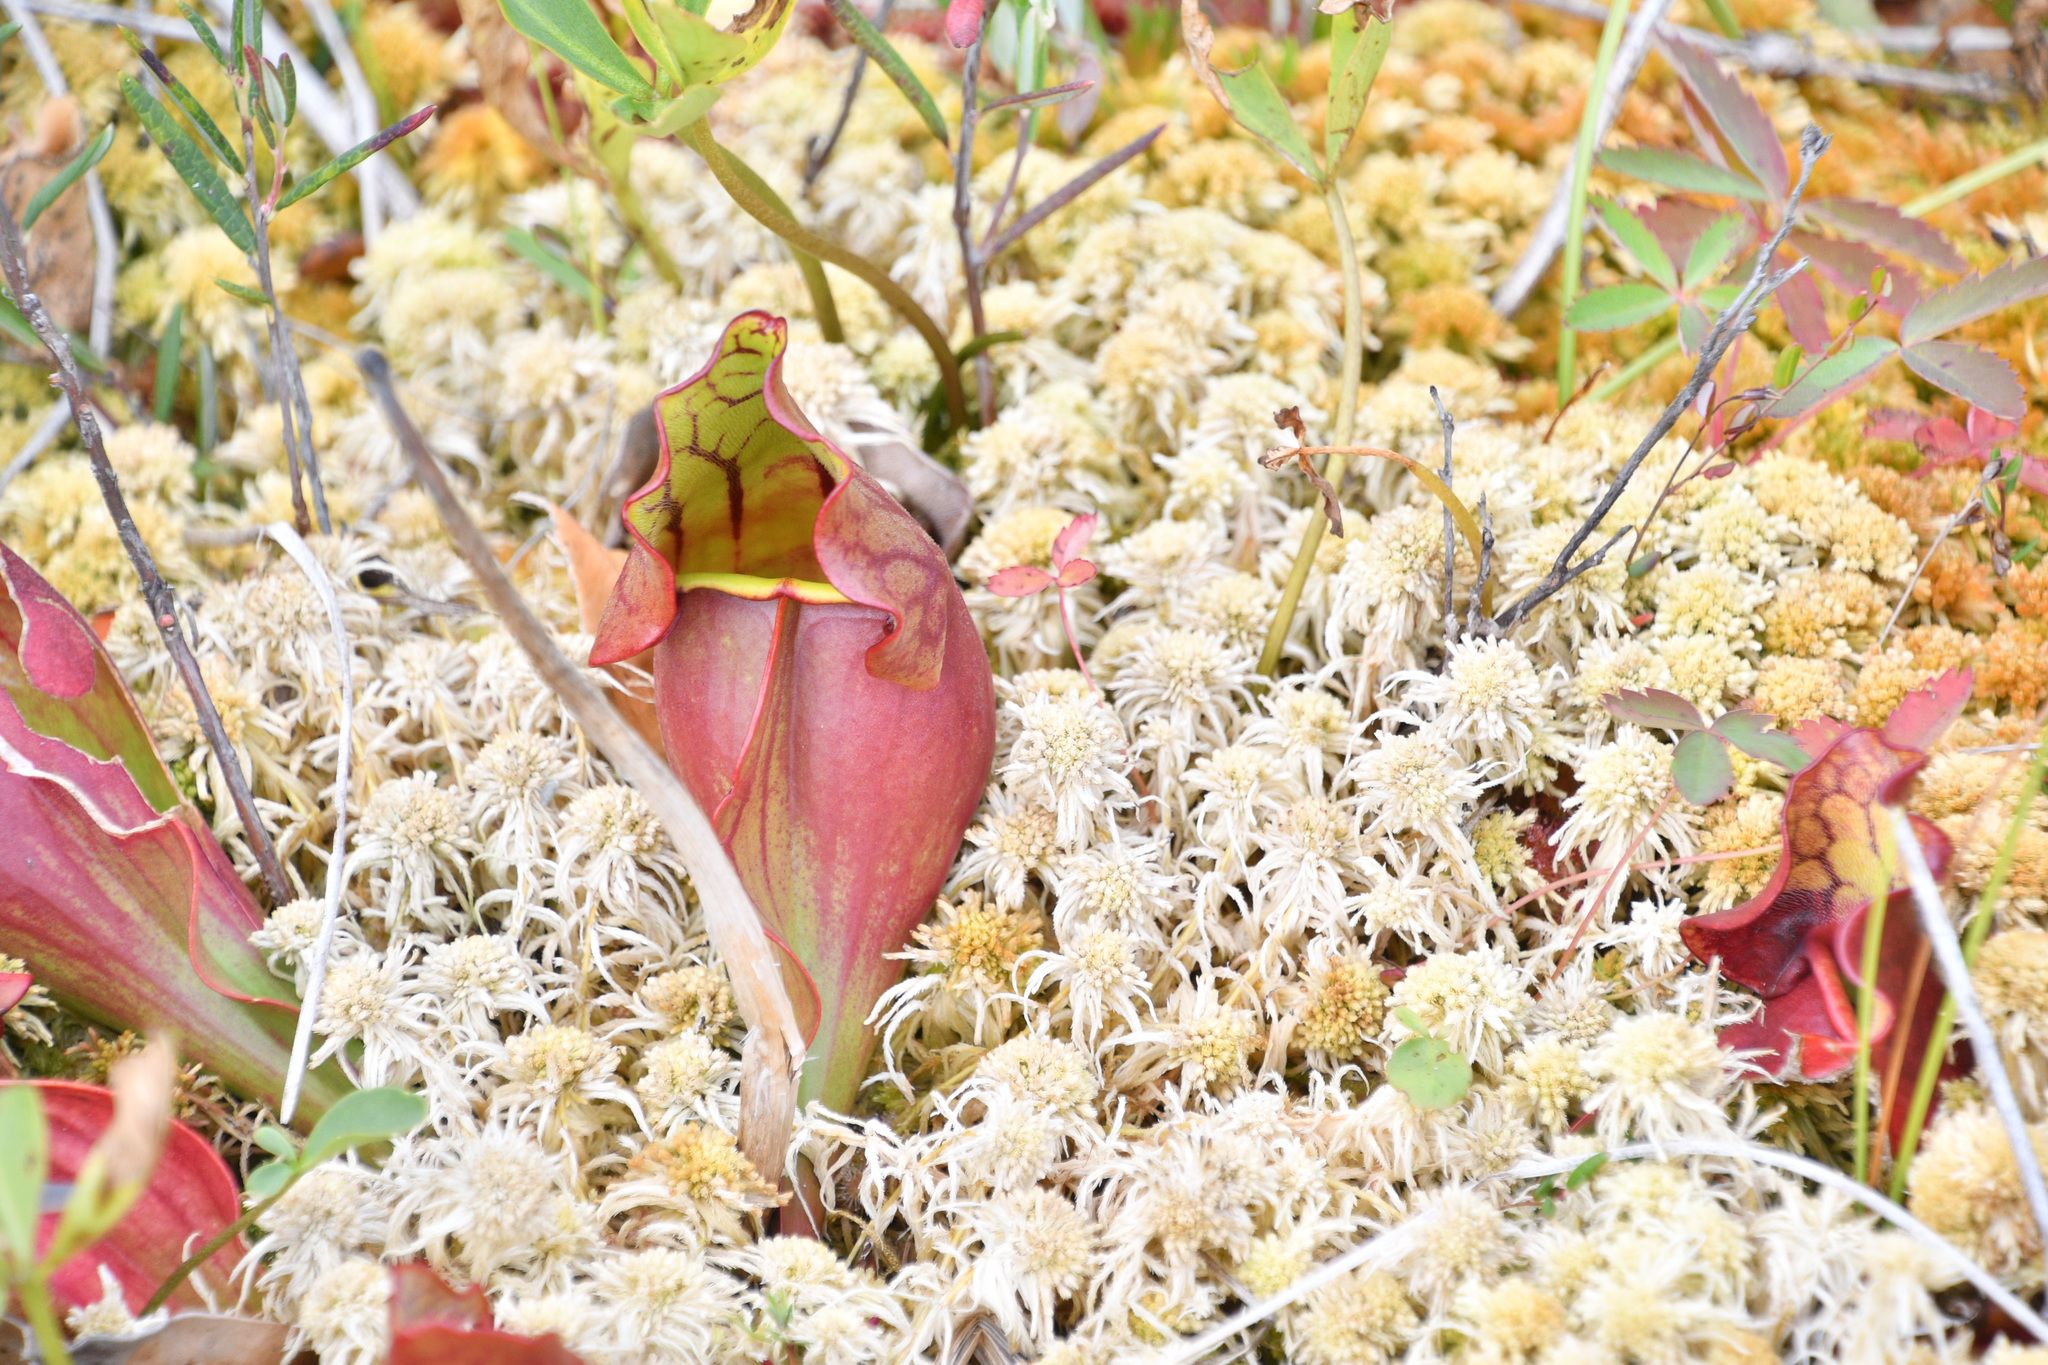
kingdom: Plantae
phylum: Tracheophyta
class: Magnoliopsida
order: Ericales
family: Sarraceniaceae
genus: Sarracenia
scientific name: Sarracenia purpurea
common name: Pitcherplant
